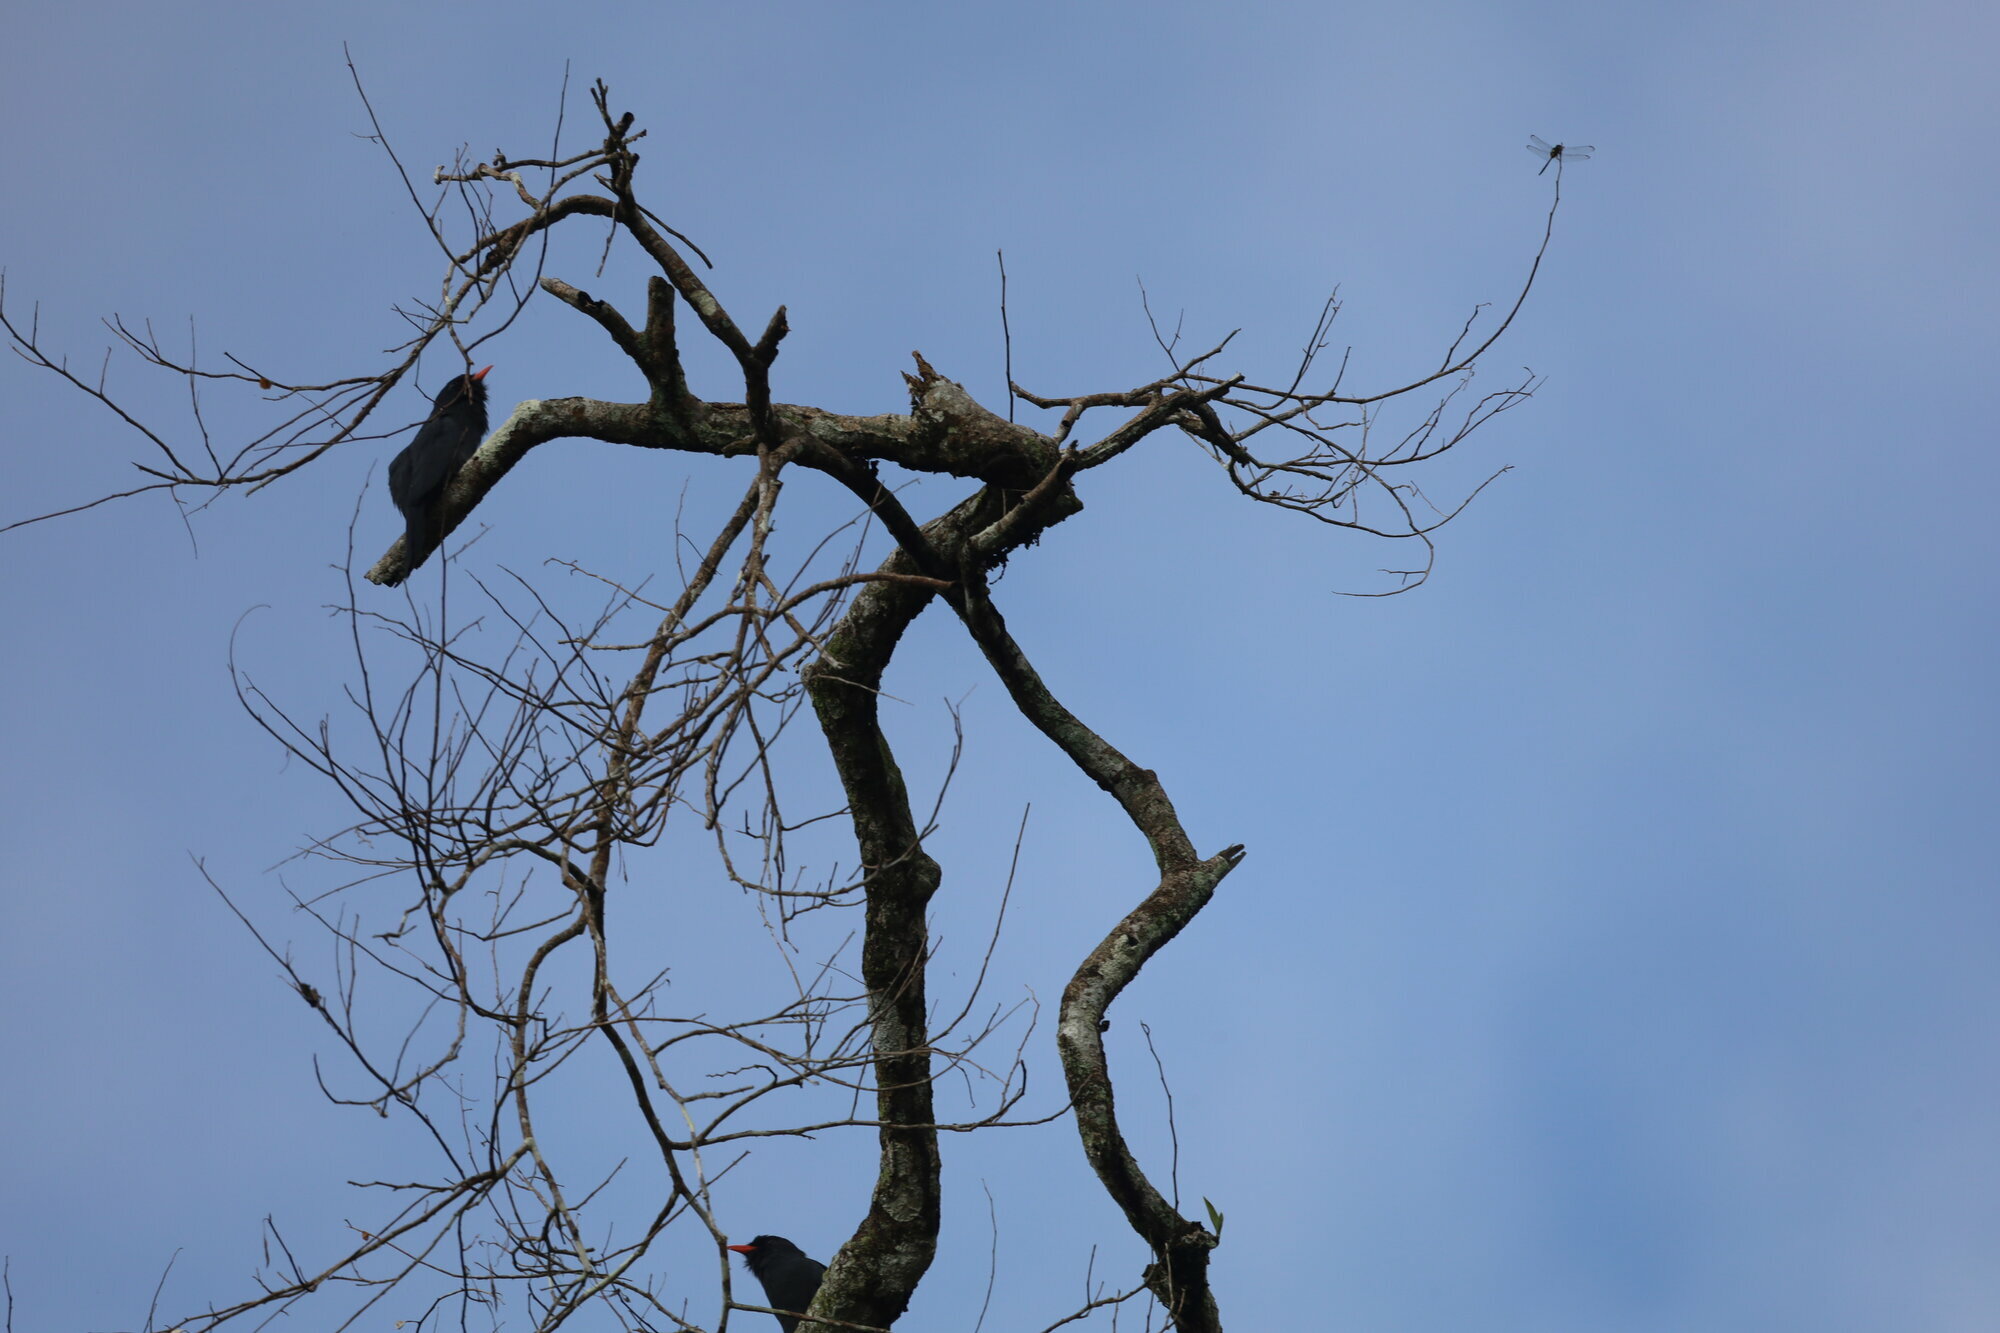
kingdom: Animalia
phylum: Chordata
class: Aves
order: Piciformes
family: Bucconidae
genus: Monasa
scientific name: Monasa nigrifrons
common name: Black-fronted nunbird
